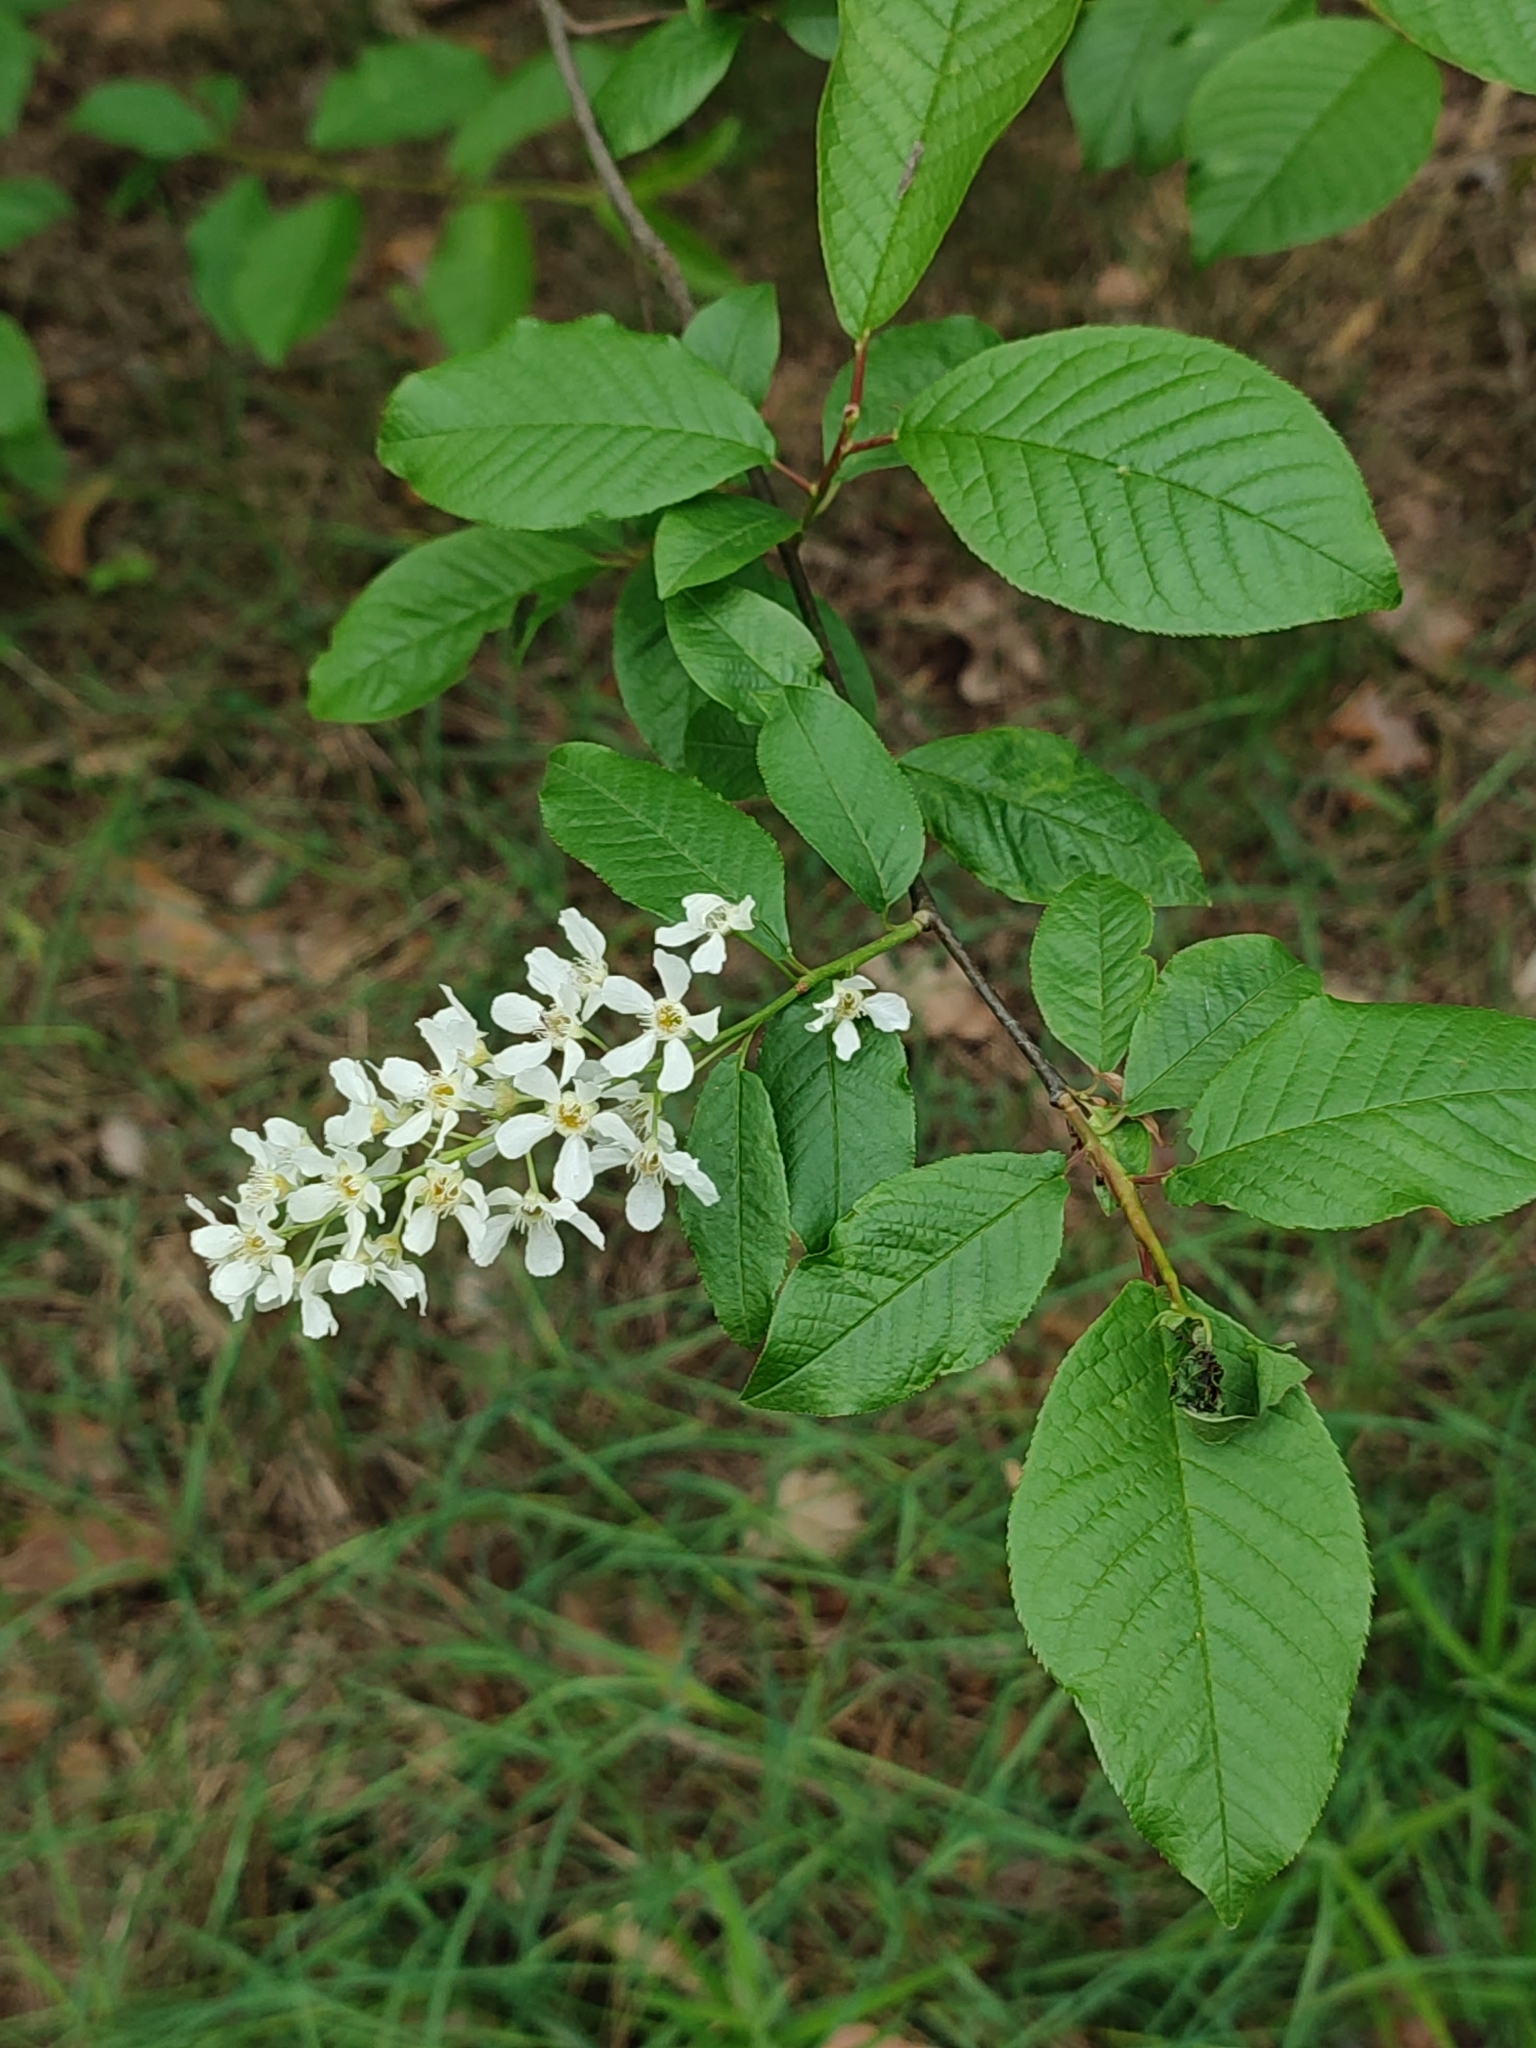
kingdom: Plantae
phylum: Tracheophyta
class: Magnoliopsida
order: Rosales
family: Rosaceae
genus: Prunus
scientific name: Prunus padus
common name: Bird cherry
